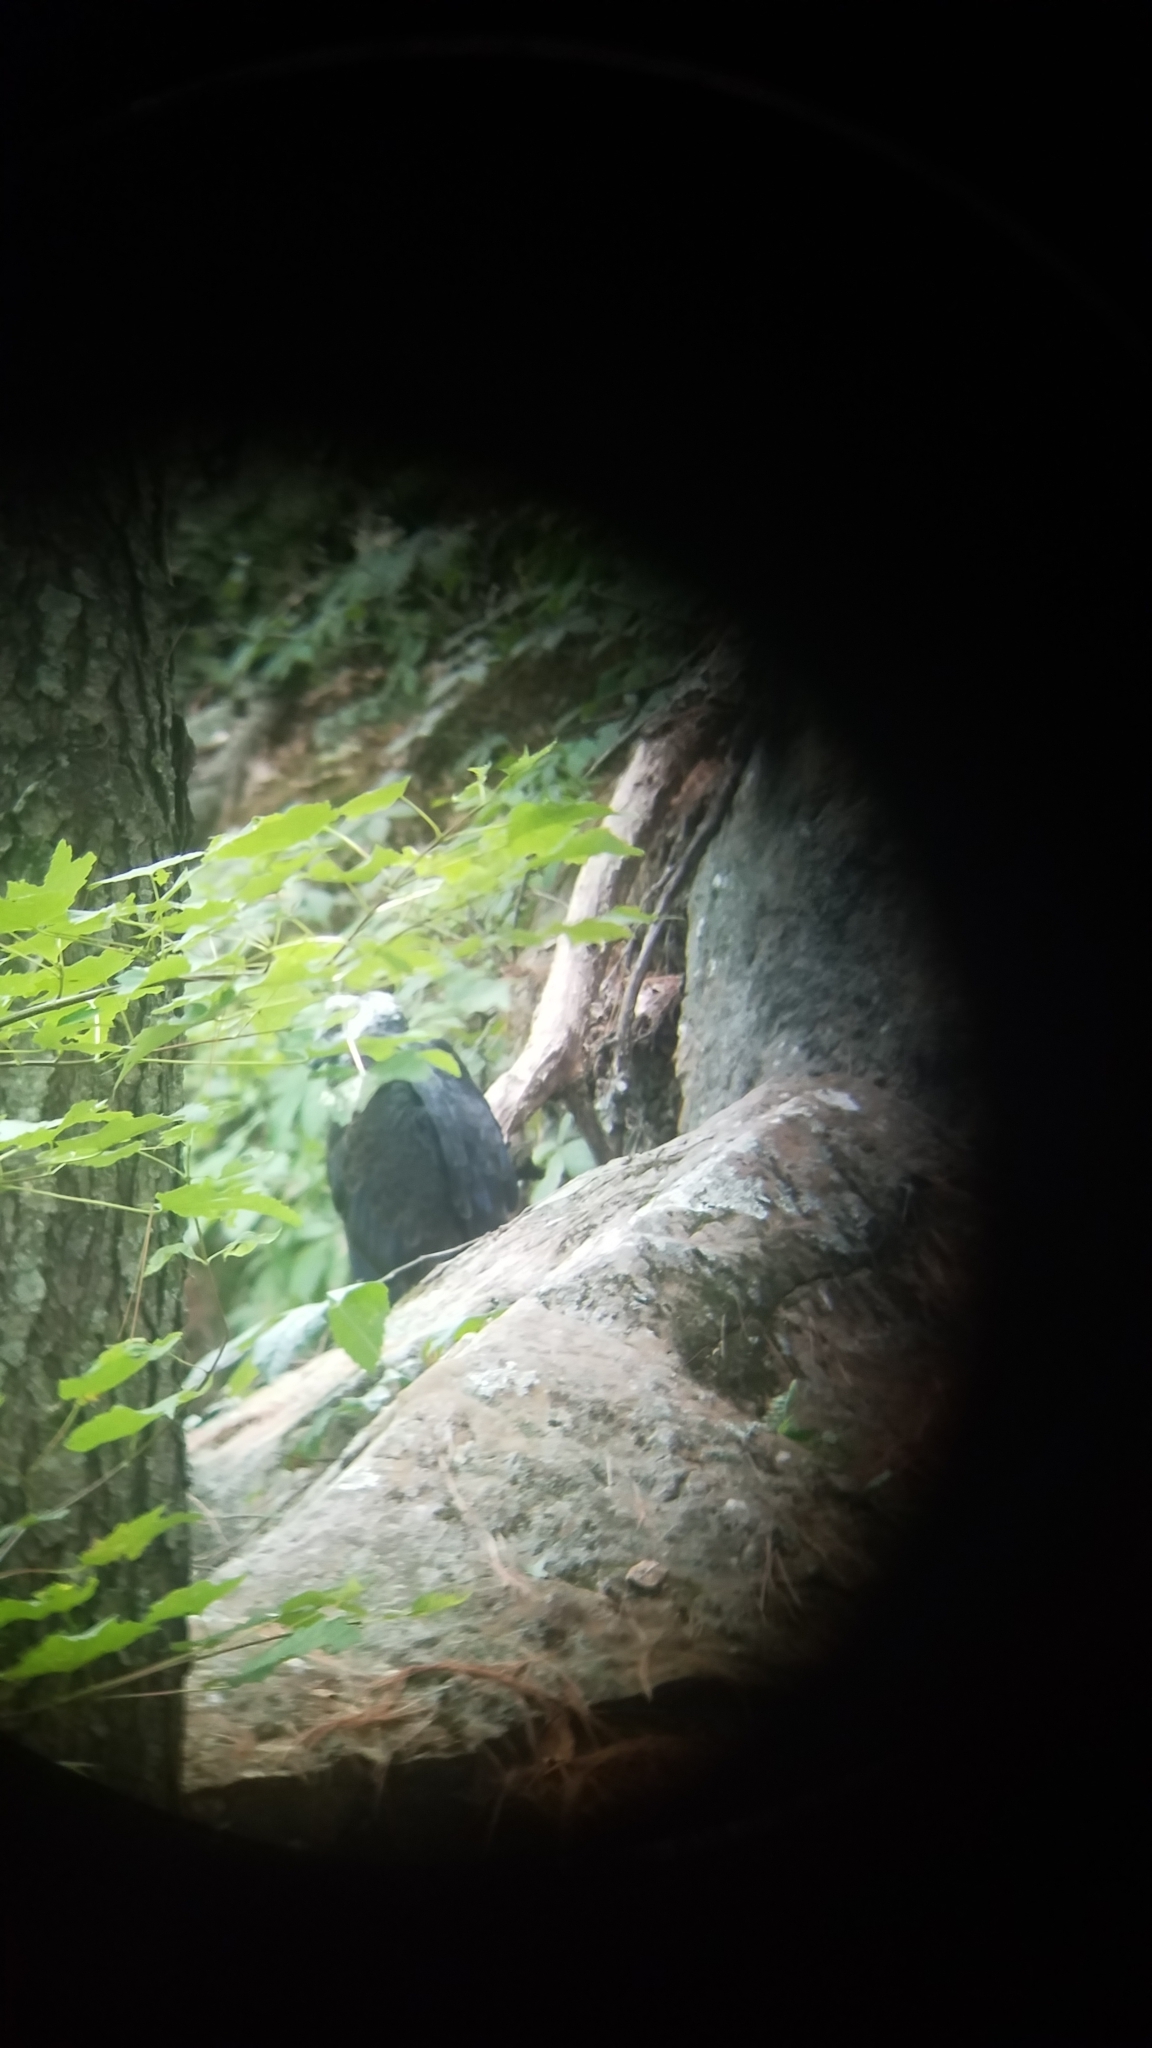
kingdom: Animalia
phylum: Chordata
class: Aves
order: Accipitriformes
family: Cathartidae
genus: Cathartes
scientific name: Cathartes aura
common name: Turkey vulture
